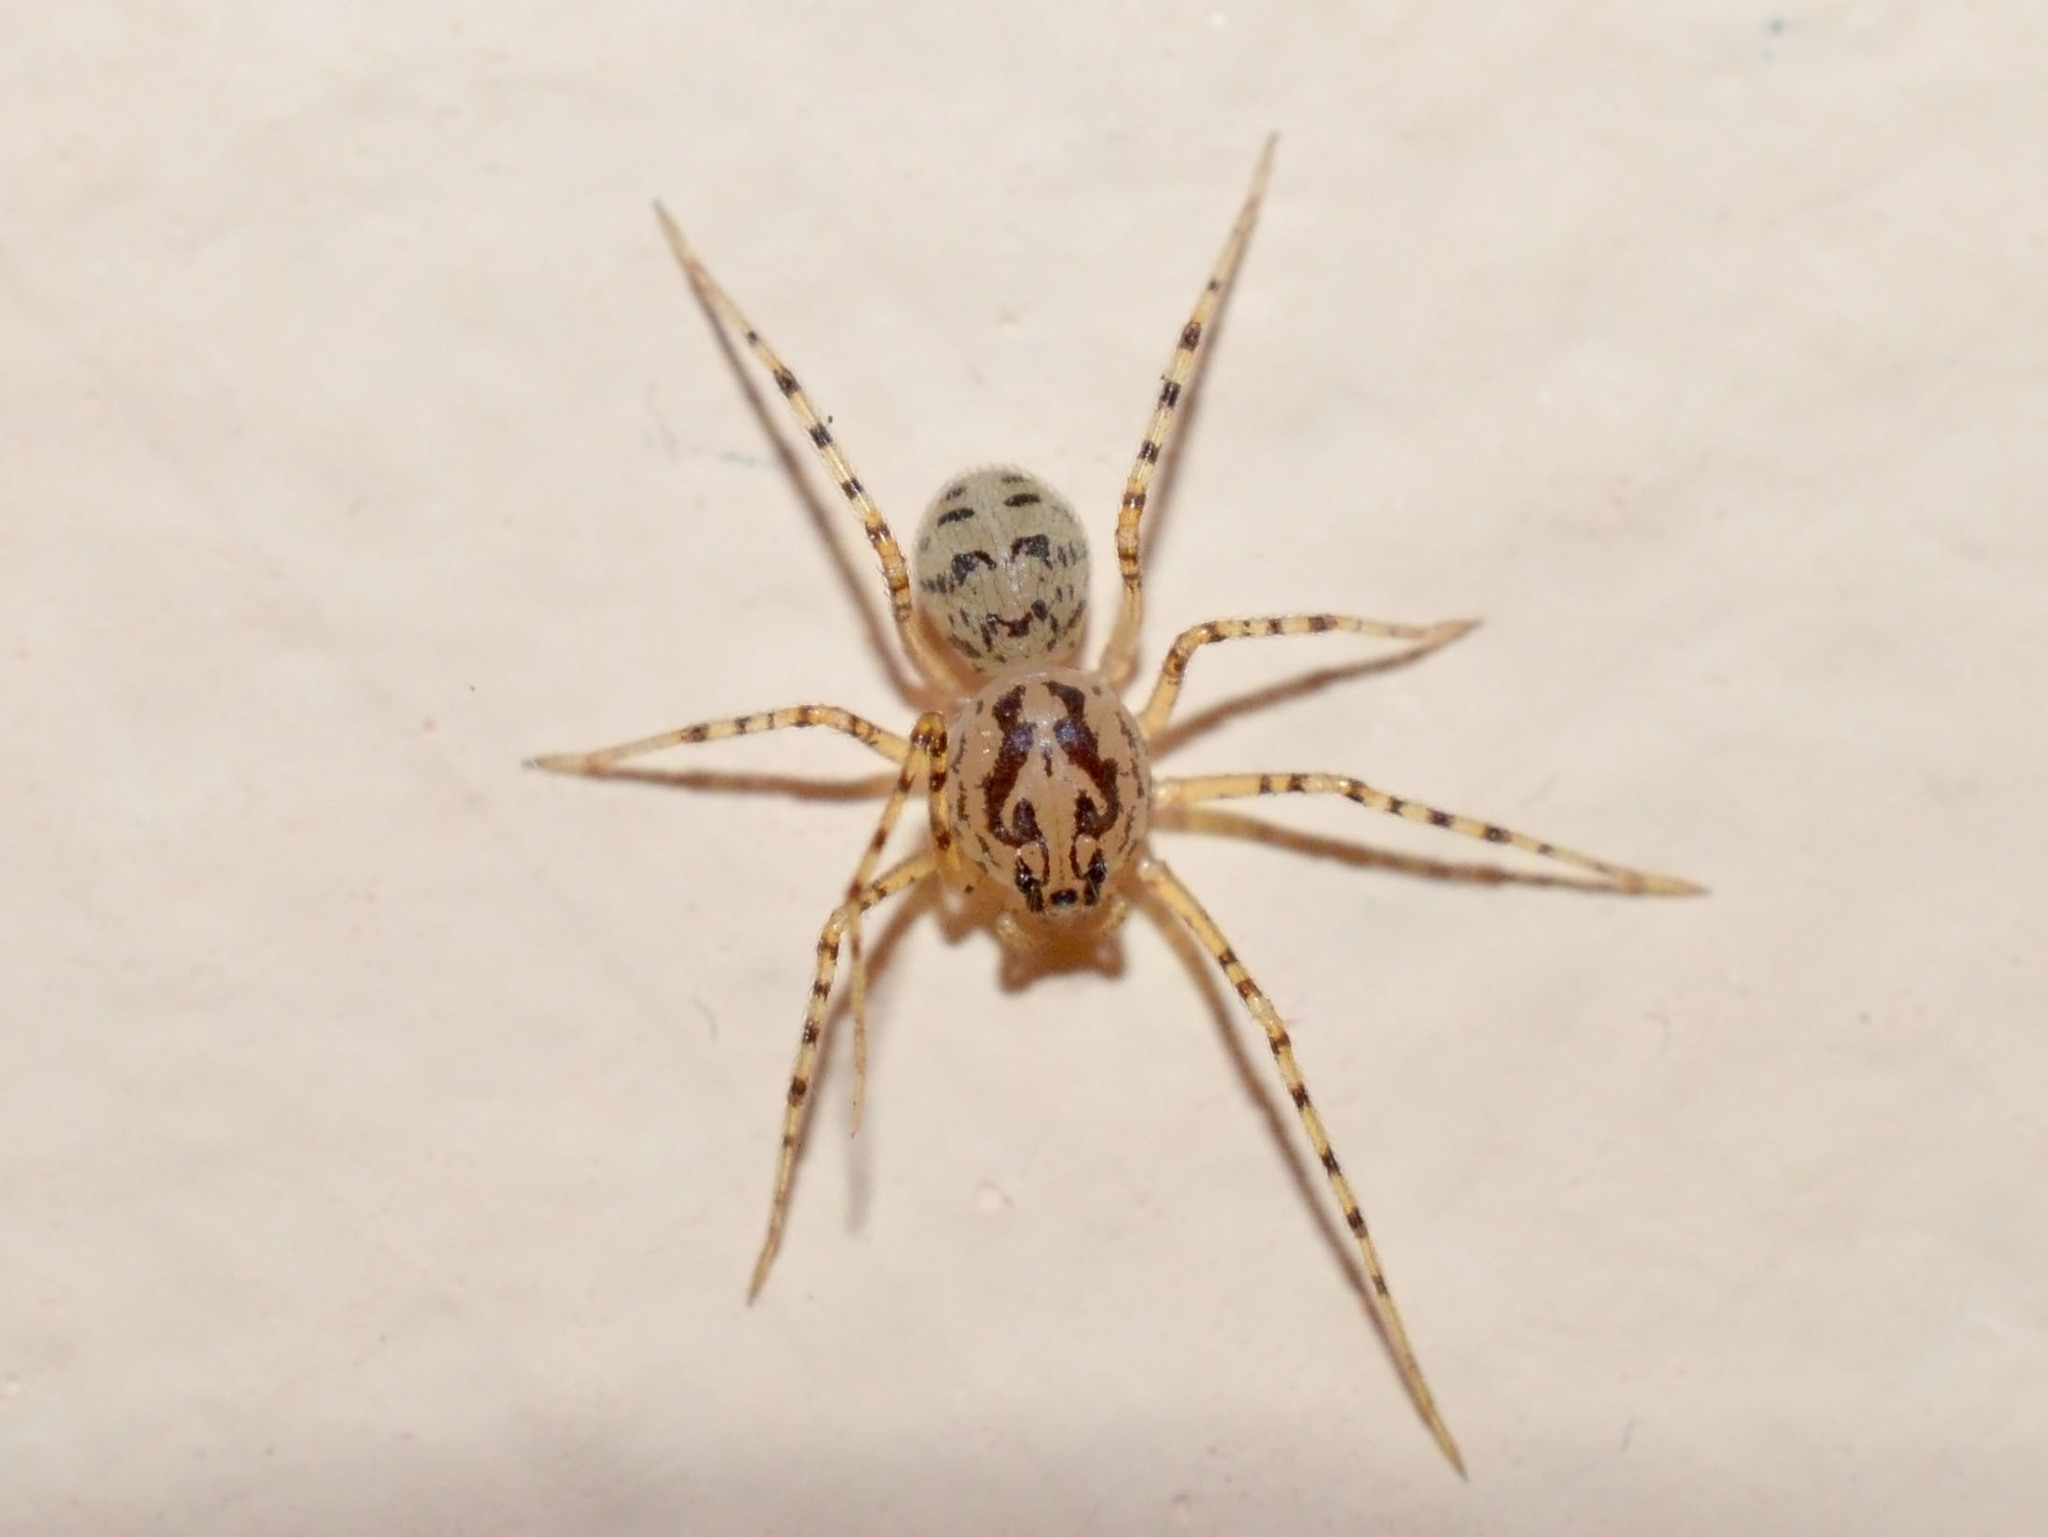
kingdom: Animalia
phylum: Arthropoda
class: Arachnida
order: Araneae
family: Scytodidae
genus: Scytodes
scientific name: Scytodes thoracica
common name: Spitting spider
